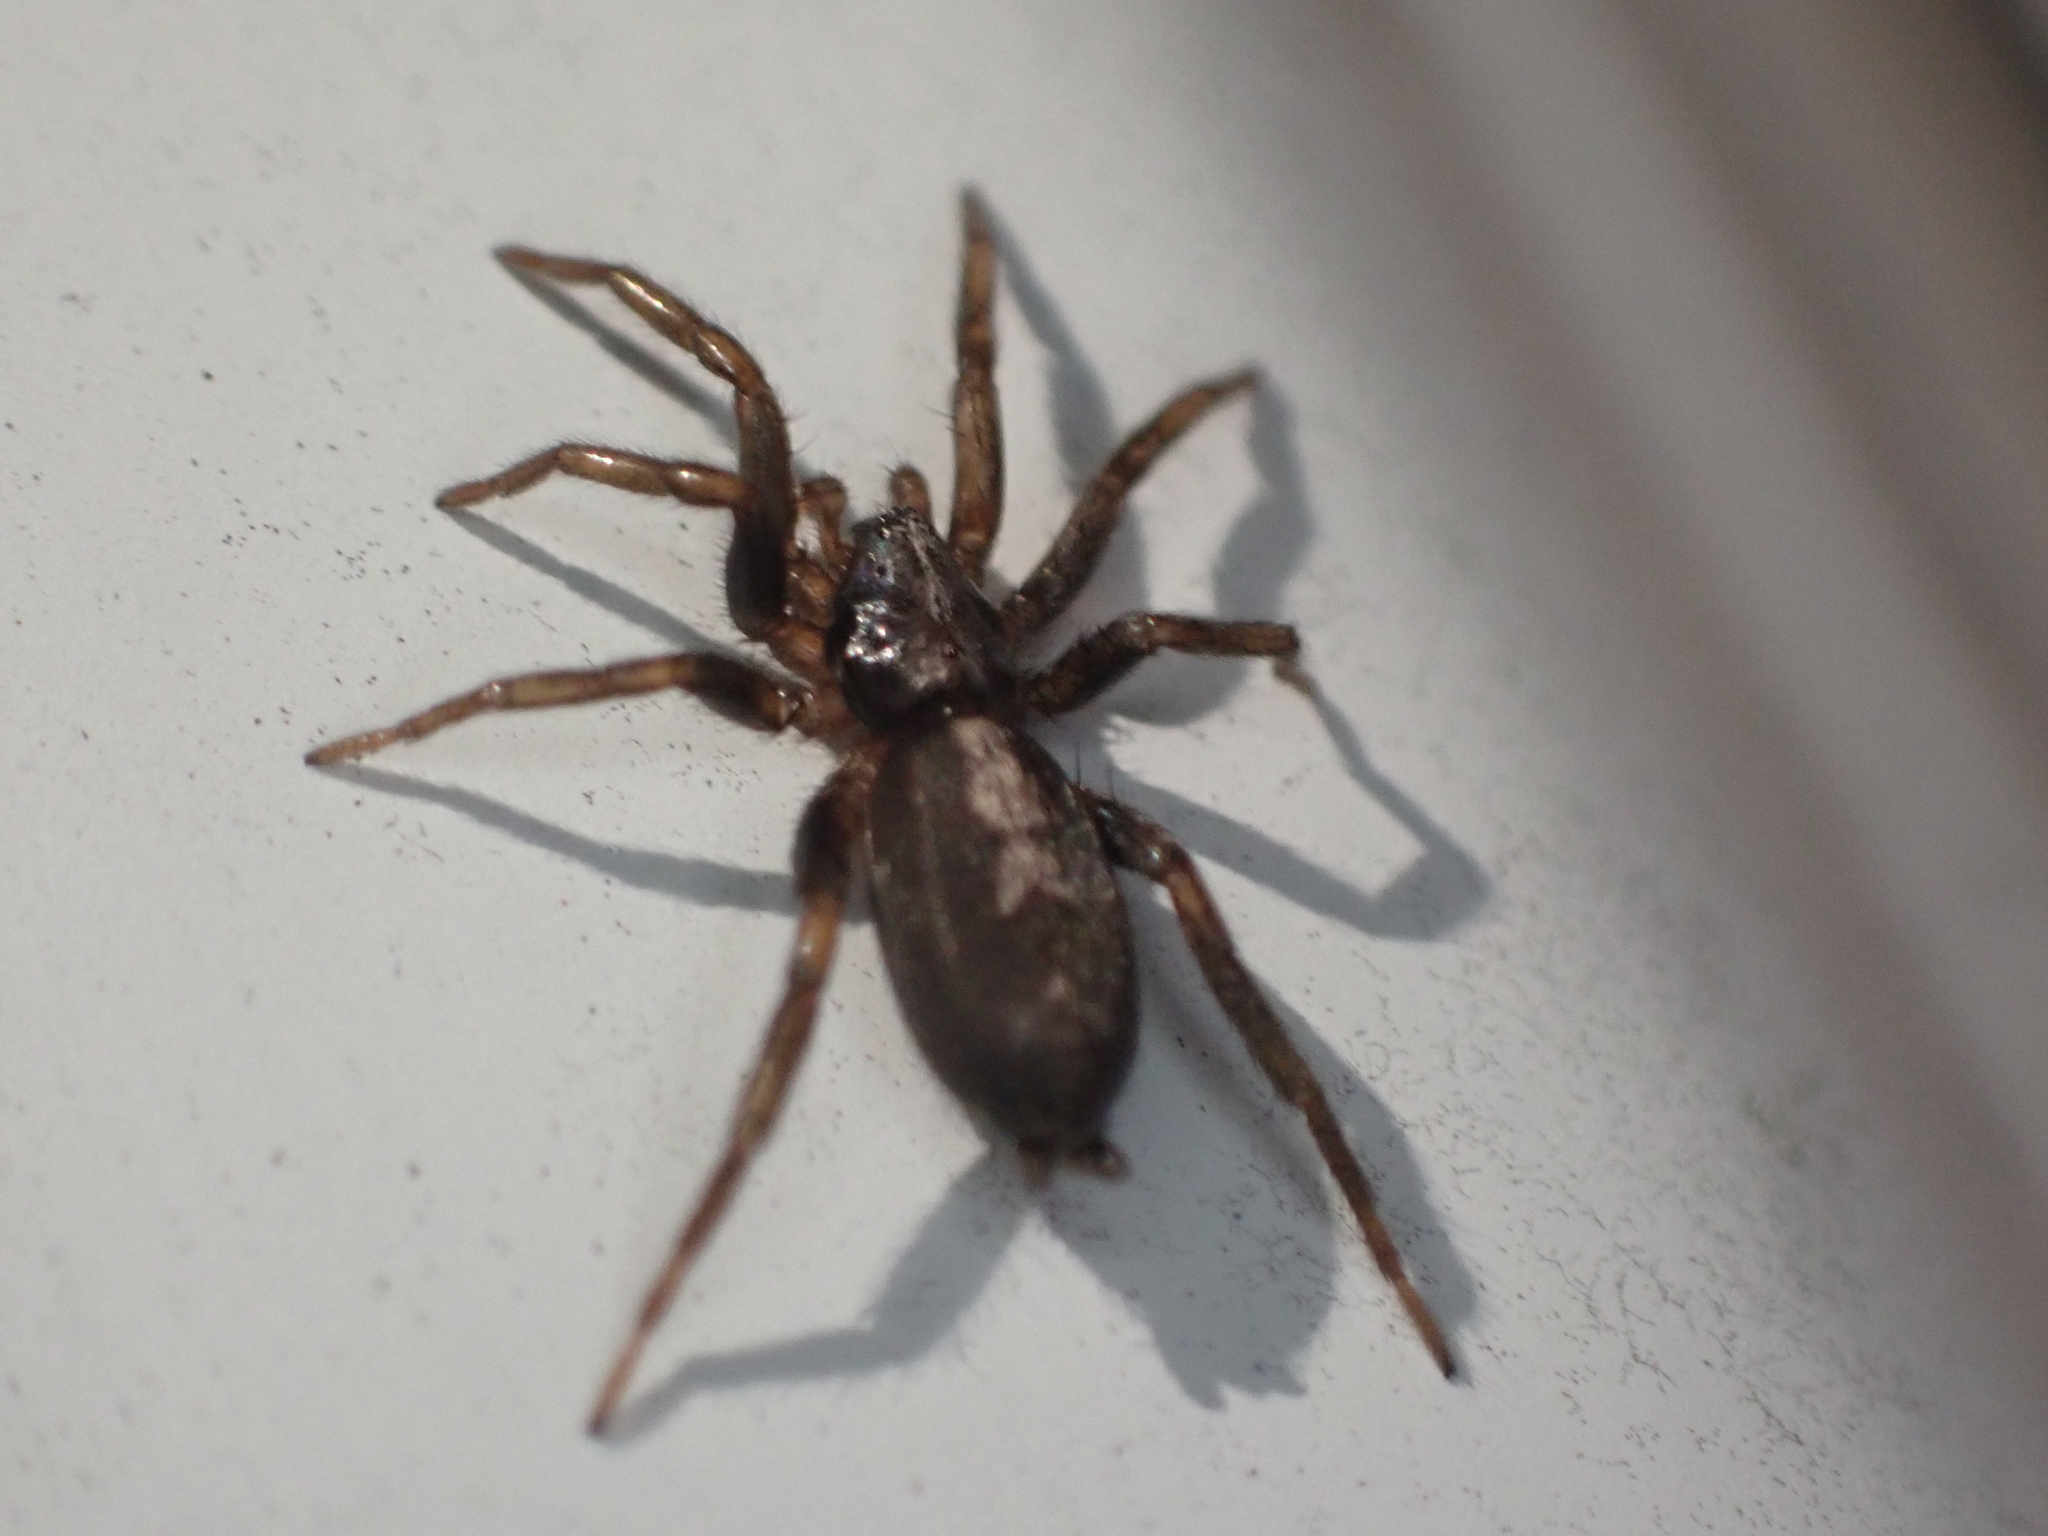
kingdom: Animalia
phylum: Arthropoda
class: Arachnida
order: Araneae
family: Gnaphosidae
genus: Herpyllus
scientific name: Herpyllus ecclesiasticus
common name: Eastern parson spider
